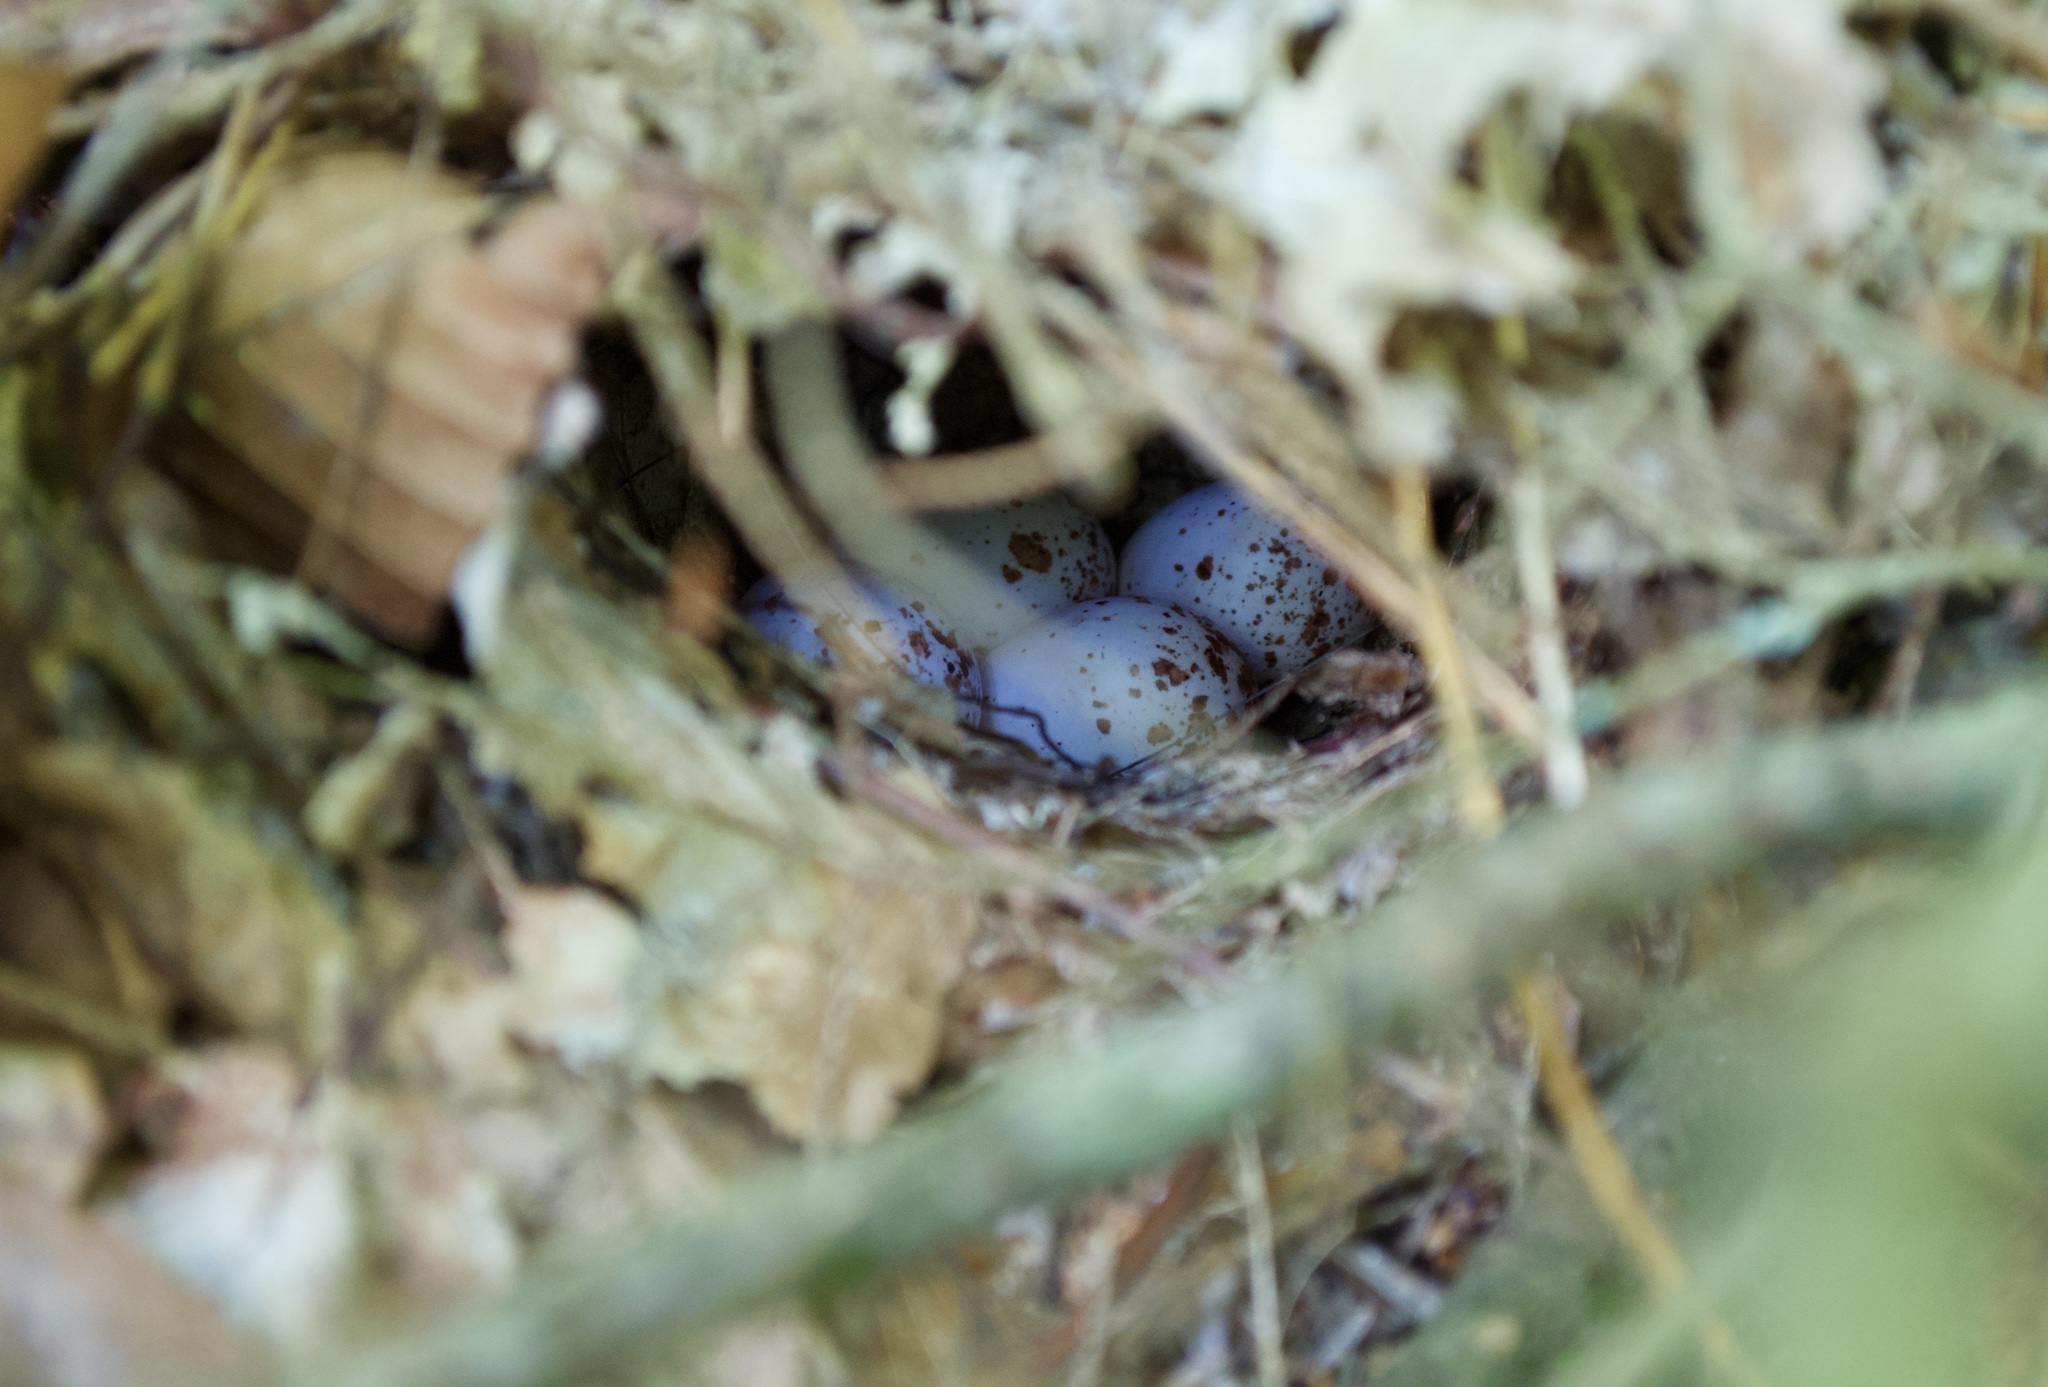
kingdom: Animalia
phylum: Chordata
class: Aves
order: Passeriformes
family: Parulidae
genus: Seiurus
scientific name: Seiurus aurocapilla
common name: Ovenbird
